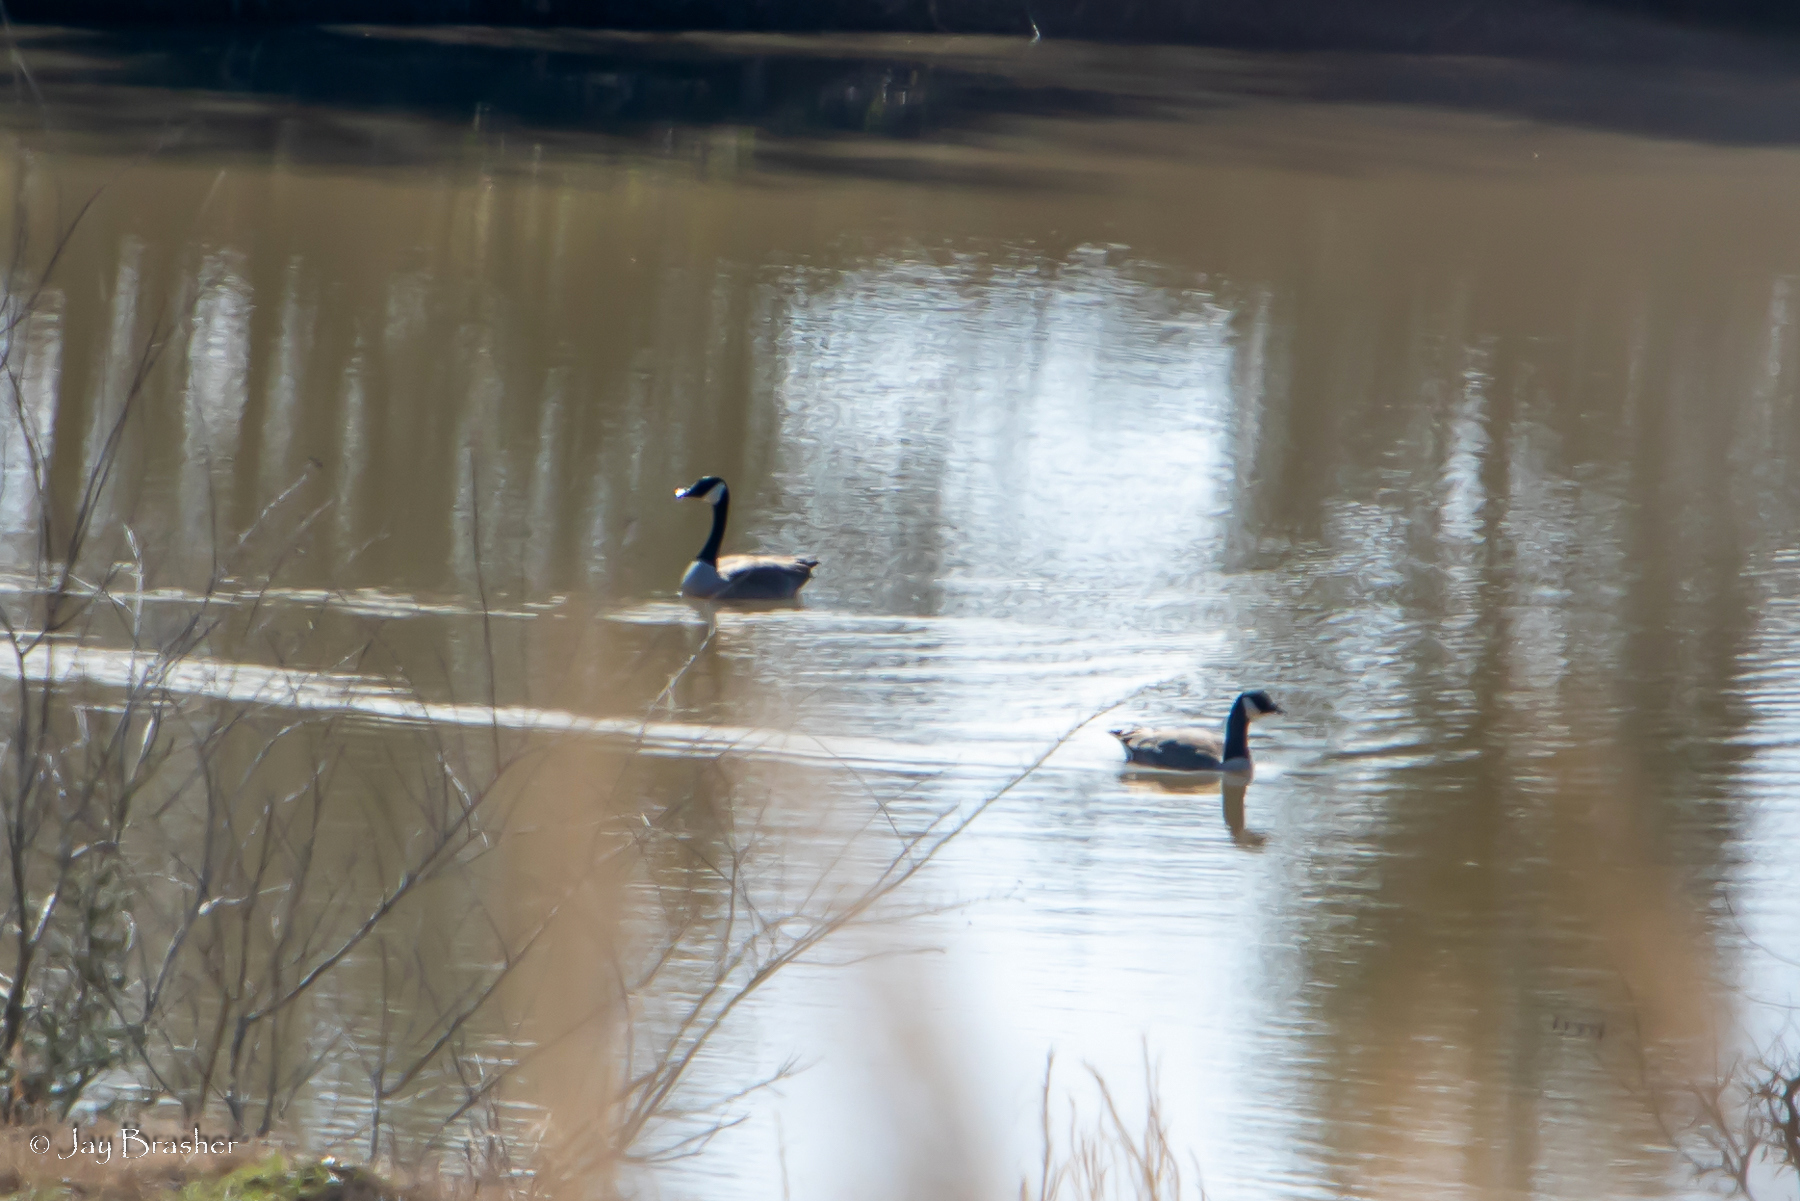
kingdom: Animalia
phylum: Chordata
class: Aves
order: Anseriformes
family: Anatidae
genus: Branta
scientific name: Branta canadensis
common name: Canada goose
